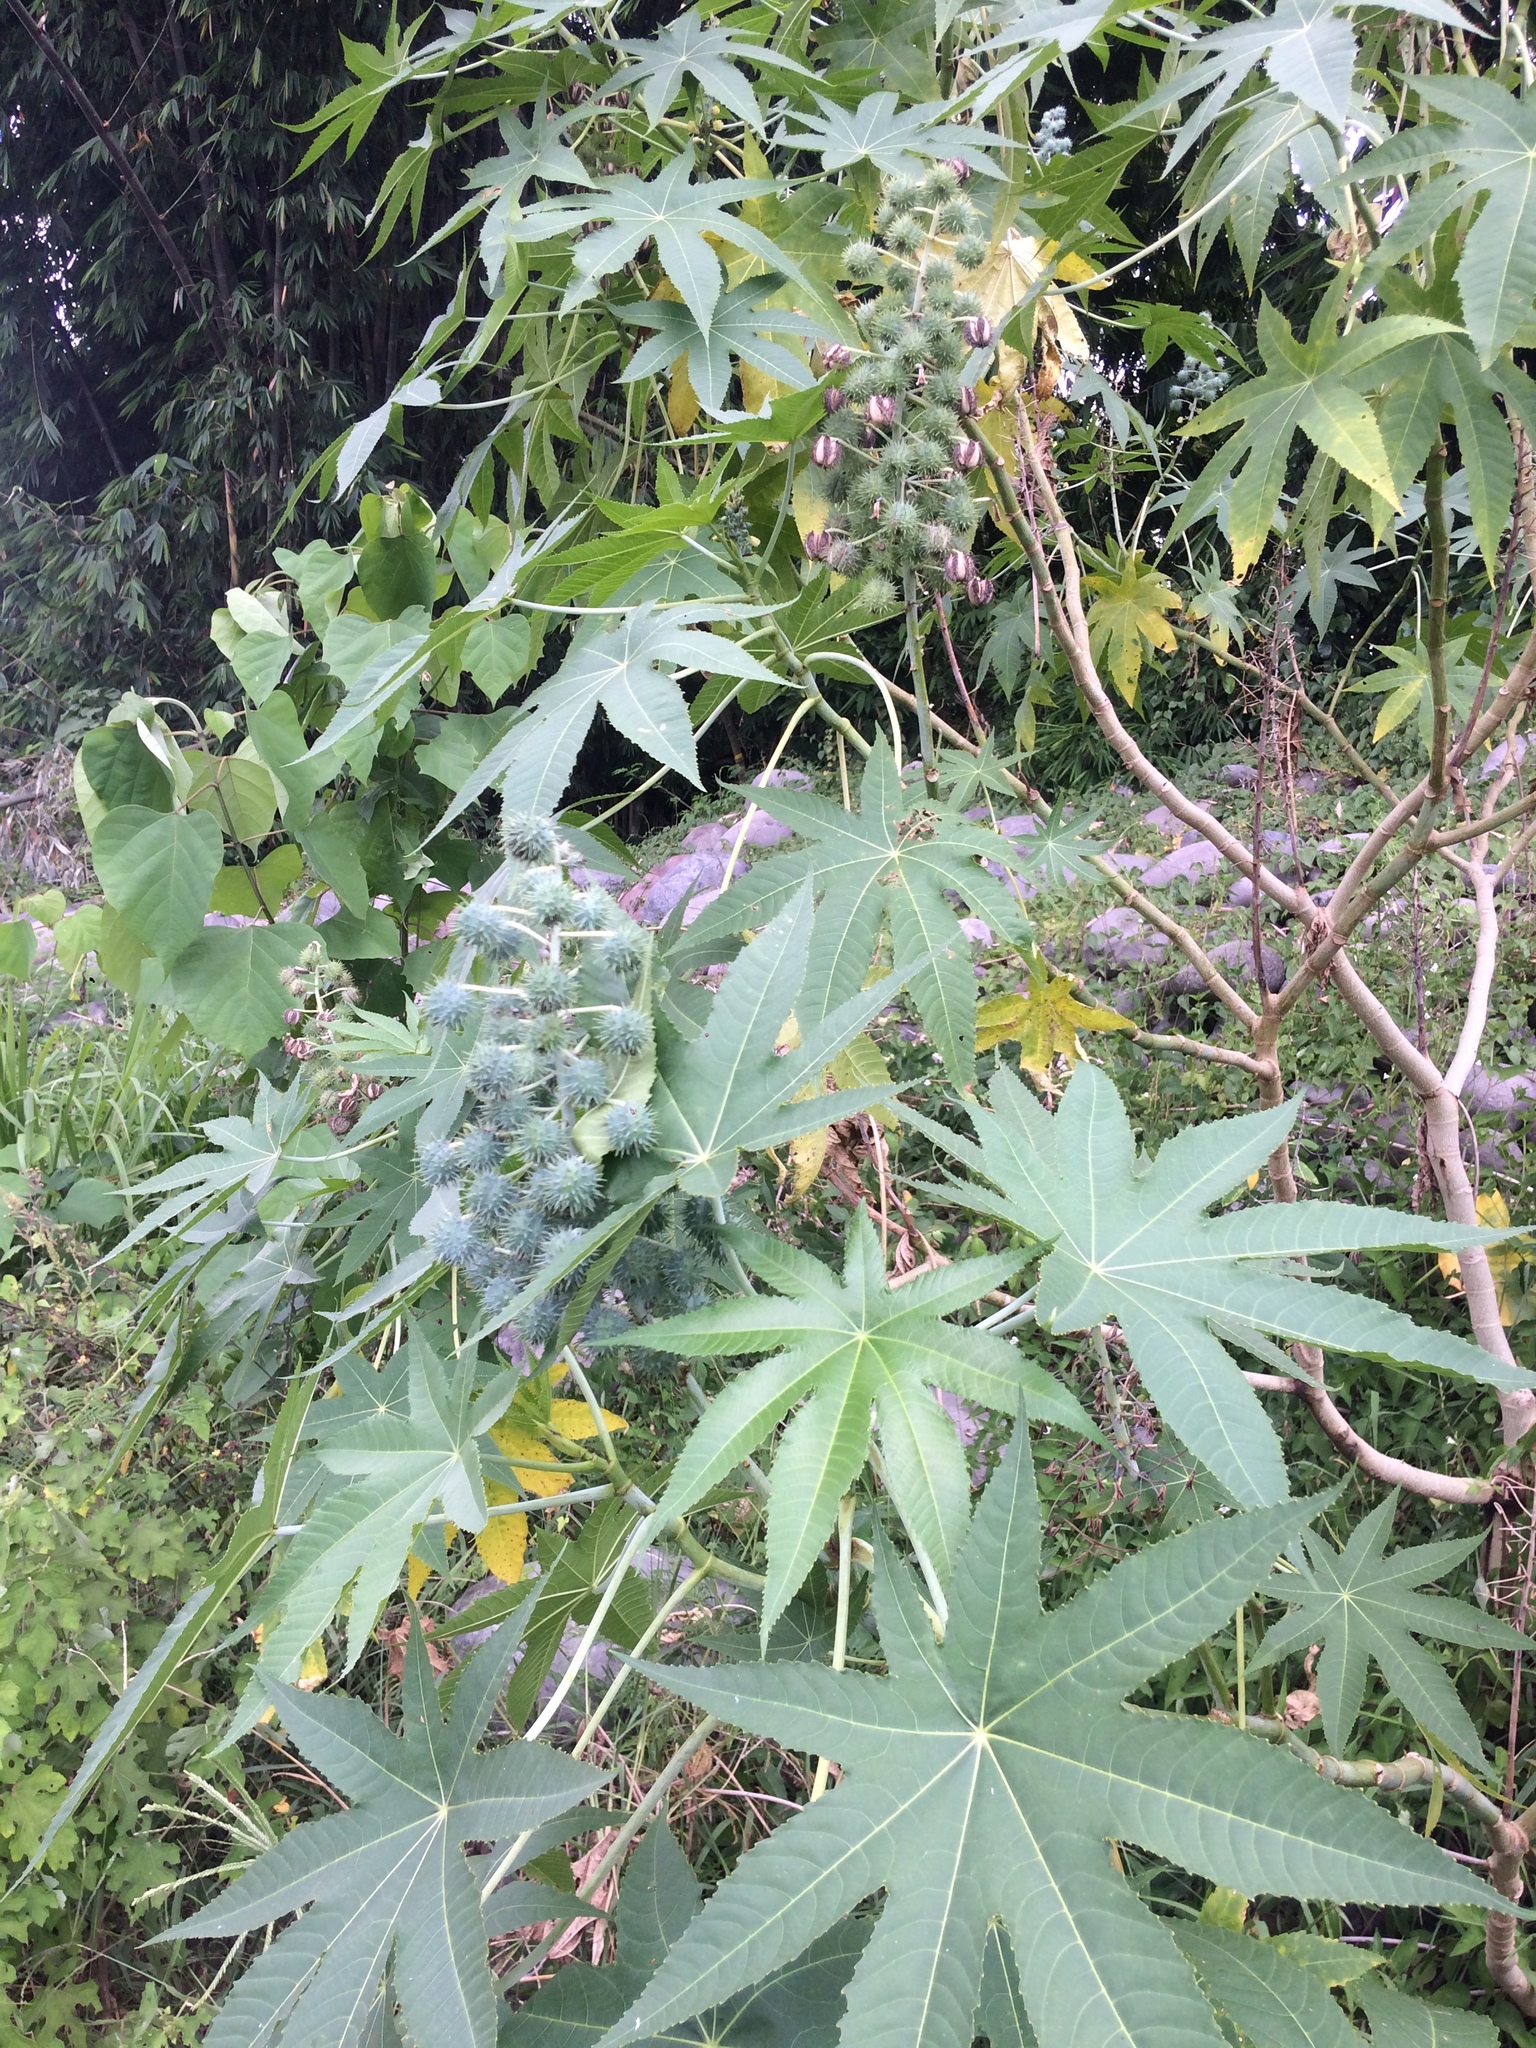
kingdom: Plantae
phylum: Tracheophyta
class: Magnoliopsida
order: Malpighiales
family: Euphorbiaceae
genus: Ricinus
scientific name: Ricinus communis
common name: Castor-oil-plant
